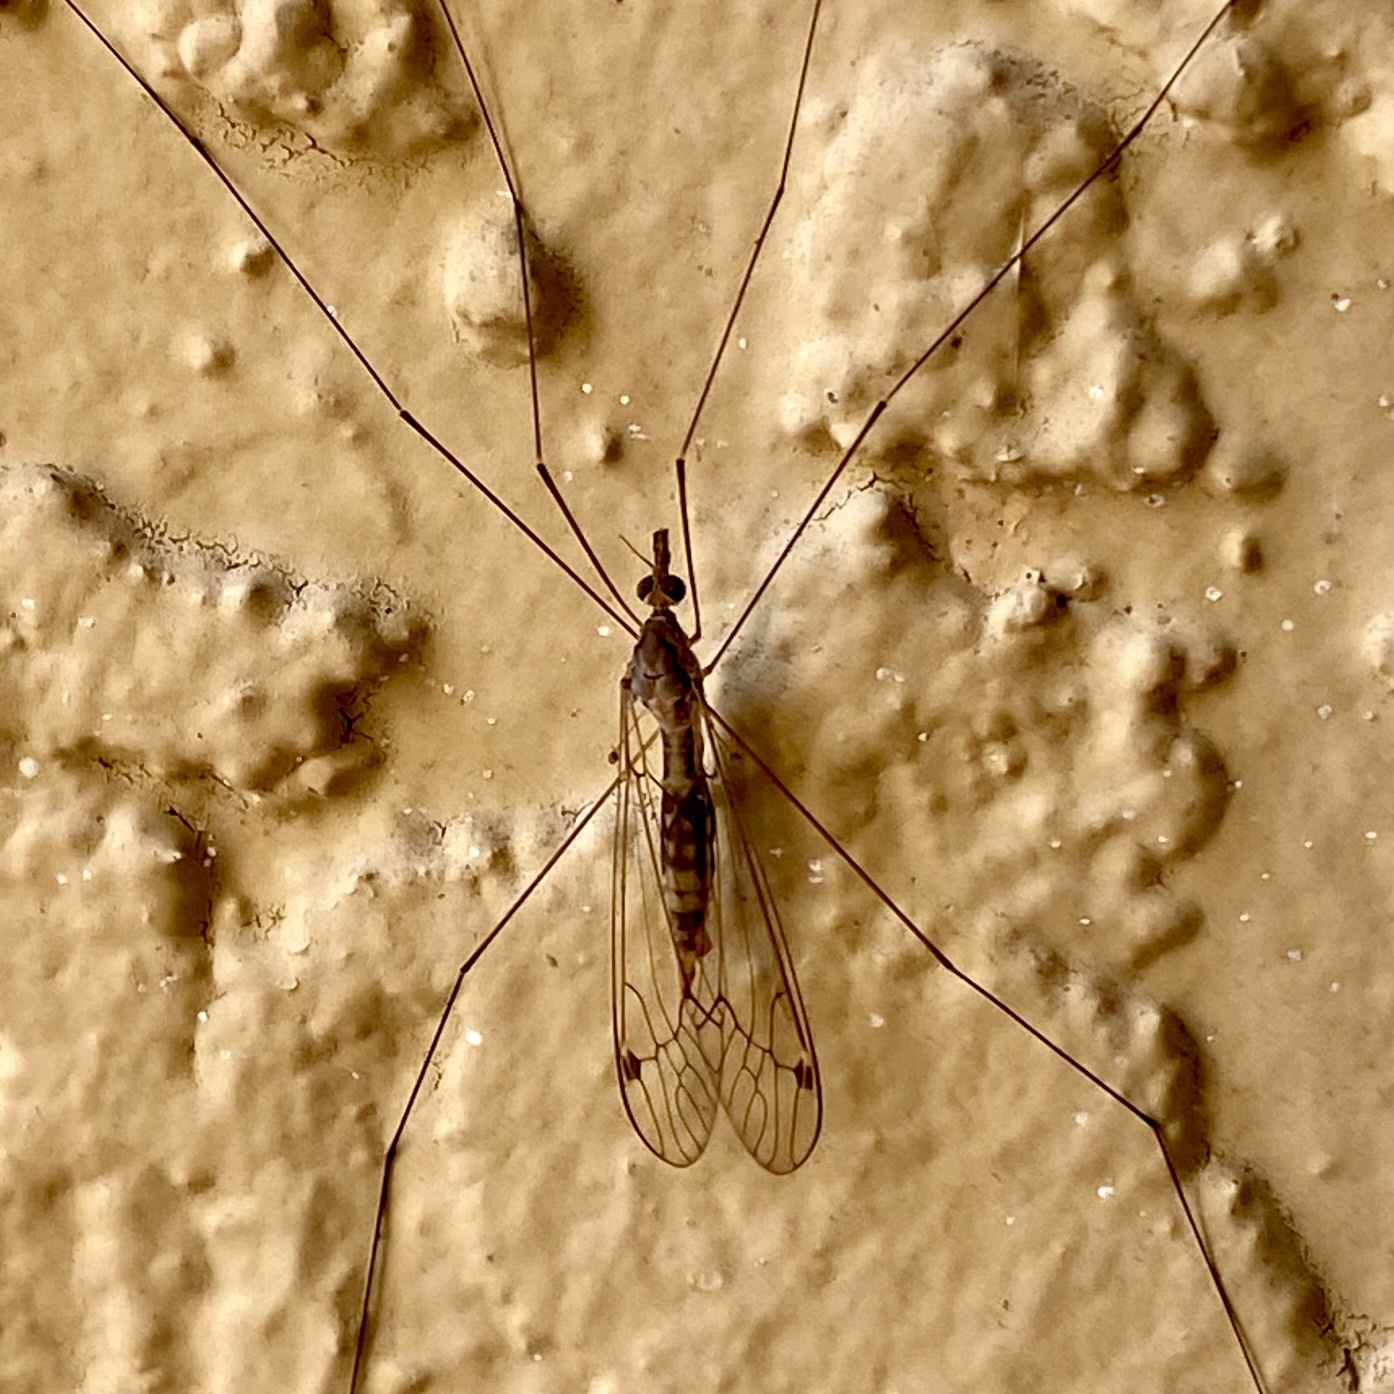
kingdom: Animalia
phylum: Arthropoda
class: Insecta
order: Diptera
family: Tipulidae
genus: Maekistocera
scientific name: Maekistocera longipennis
